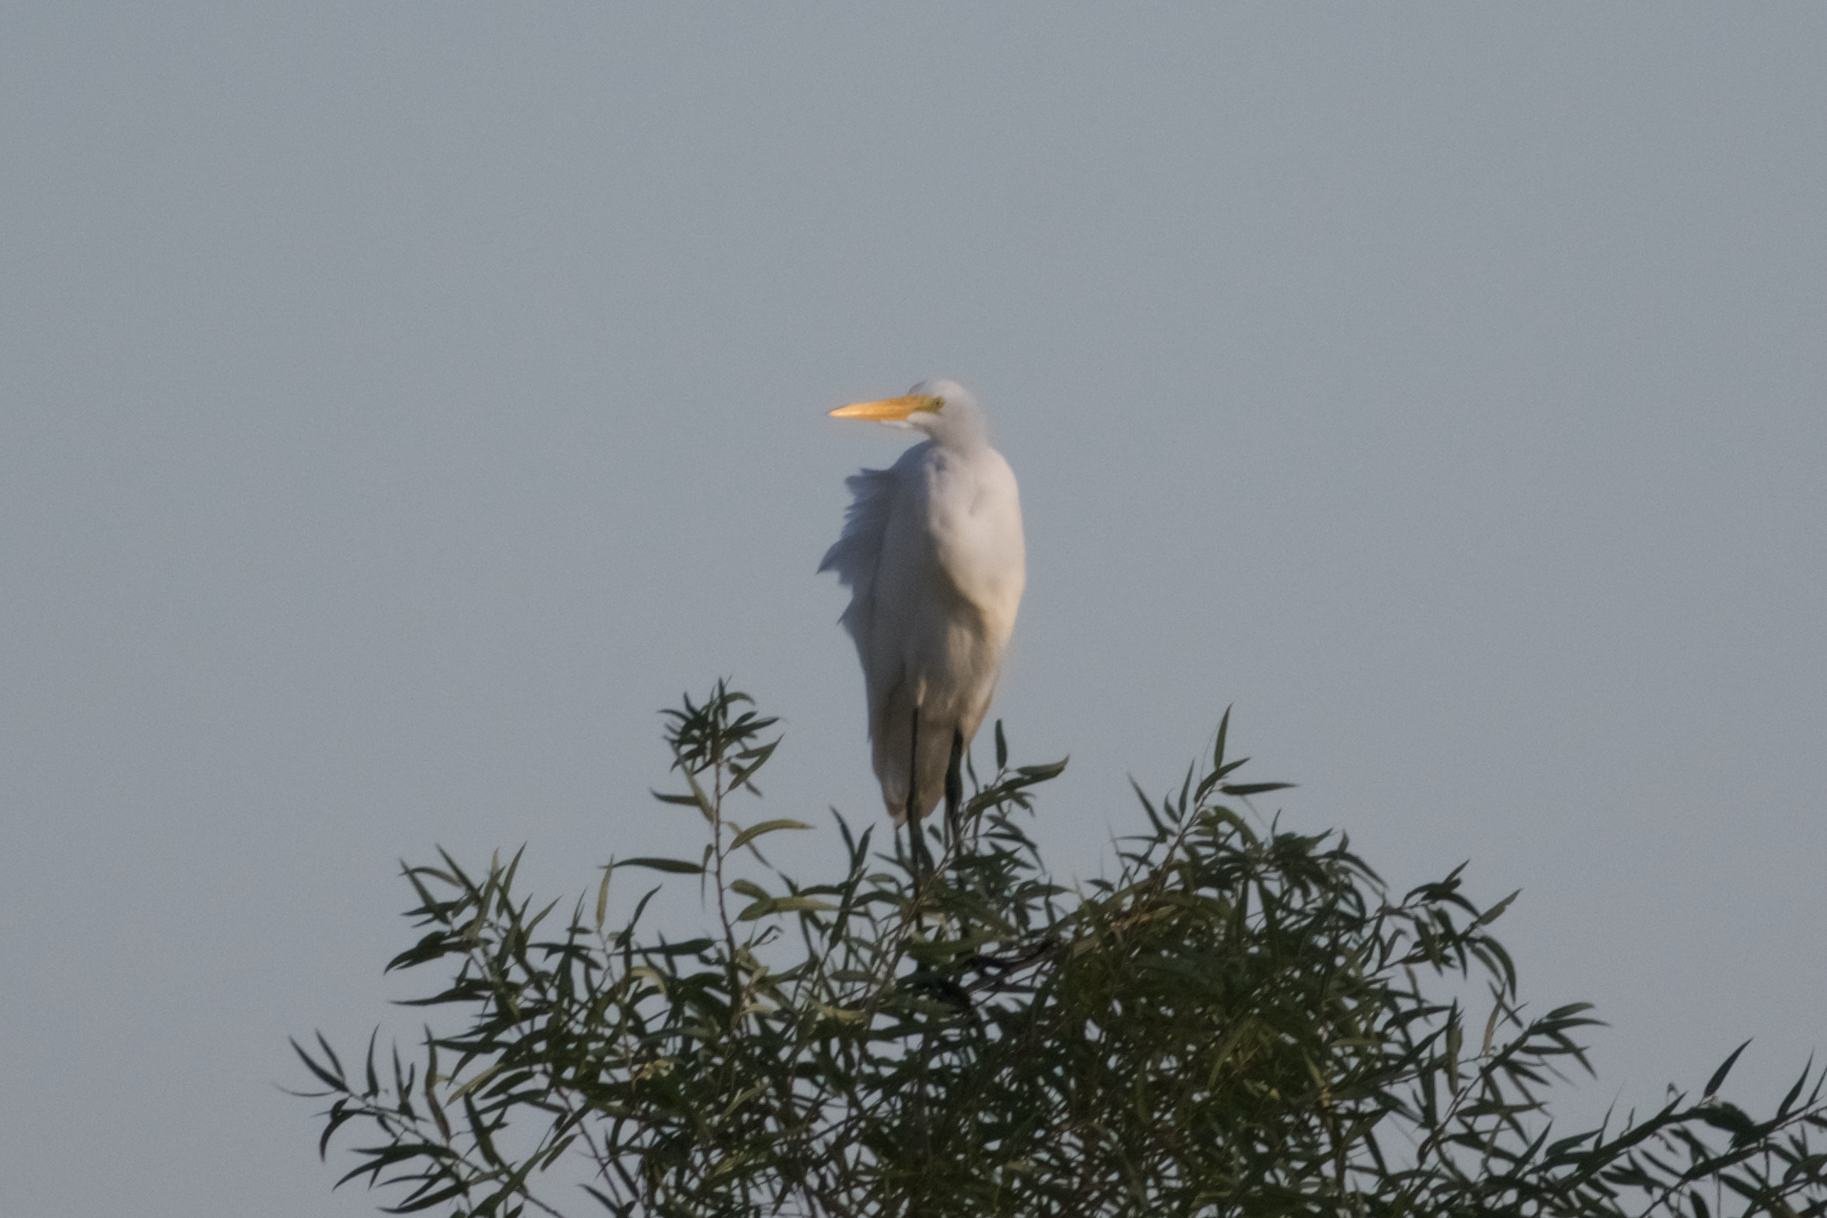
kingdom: Animalia
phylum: Chordata
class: Aves
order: Pelecaniformes
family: Ardeidae
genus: Ardea
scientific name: Ardea alba
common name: Great egret
